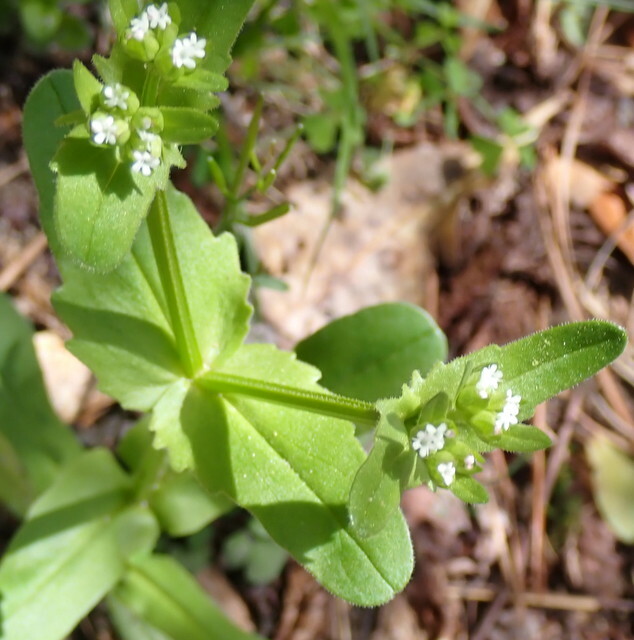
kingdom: Plantae
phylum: Tracheophyta
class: Magnoliopsida
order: Dipsacales
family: Caprifoliaceae
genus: Valerianella
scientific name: Valerianella radiata
